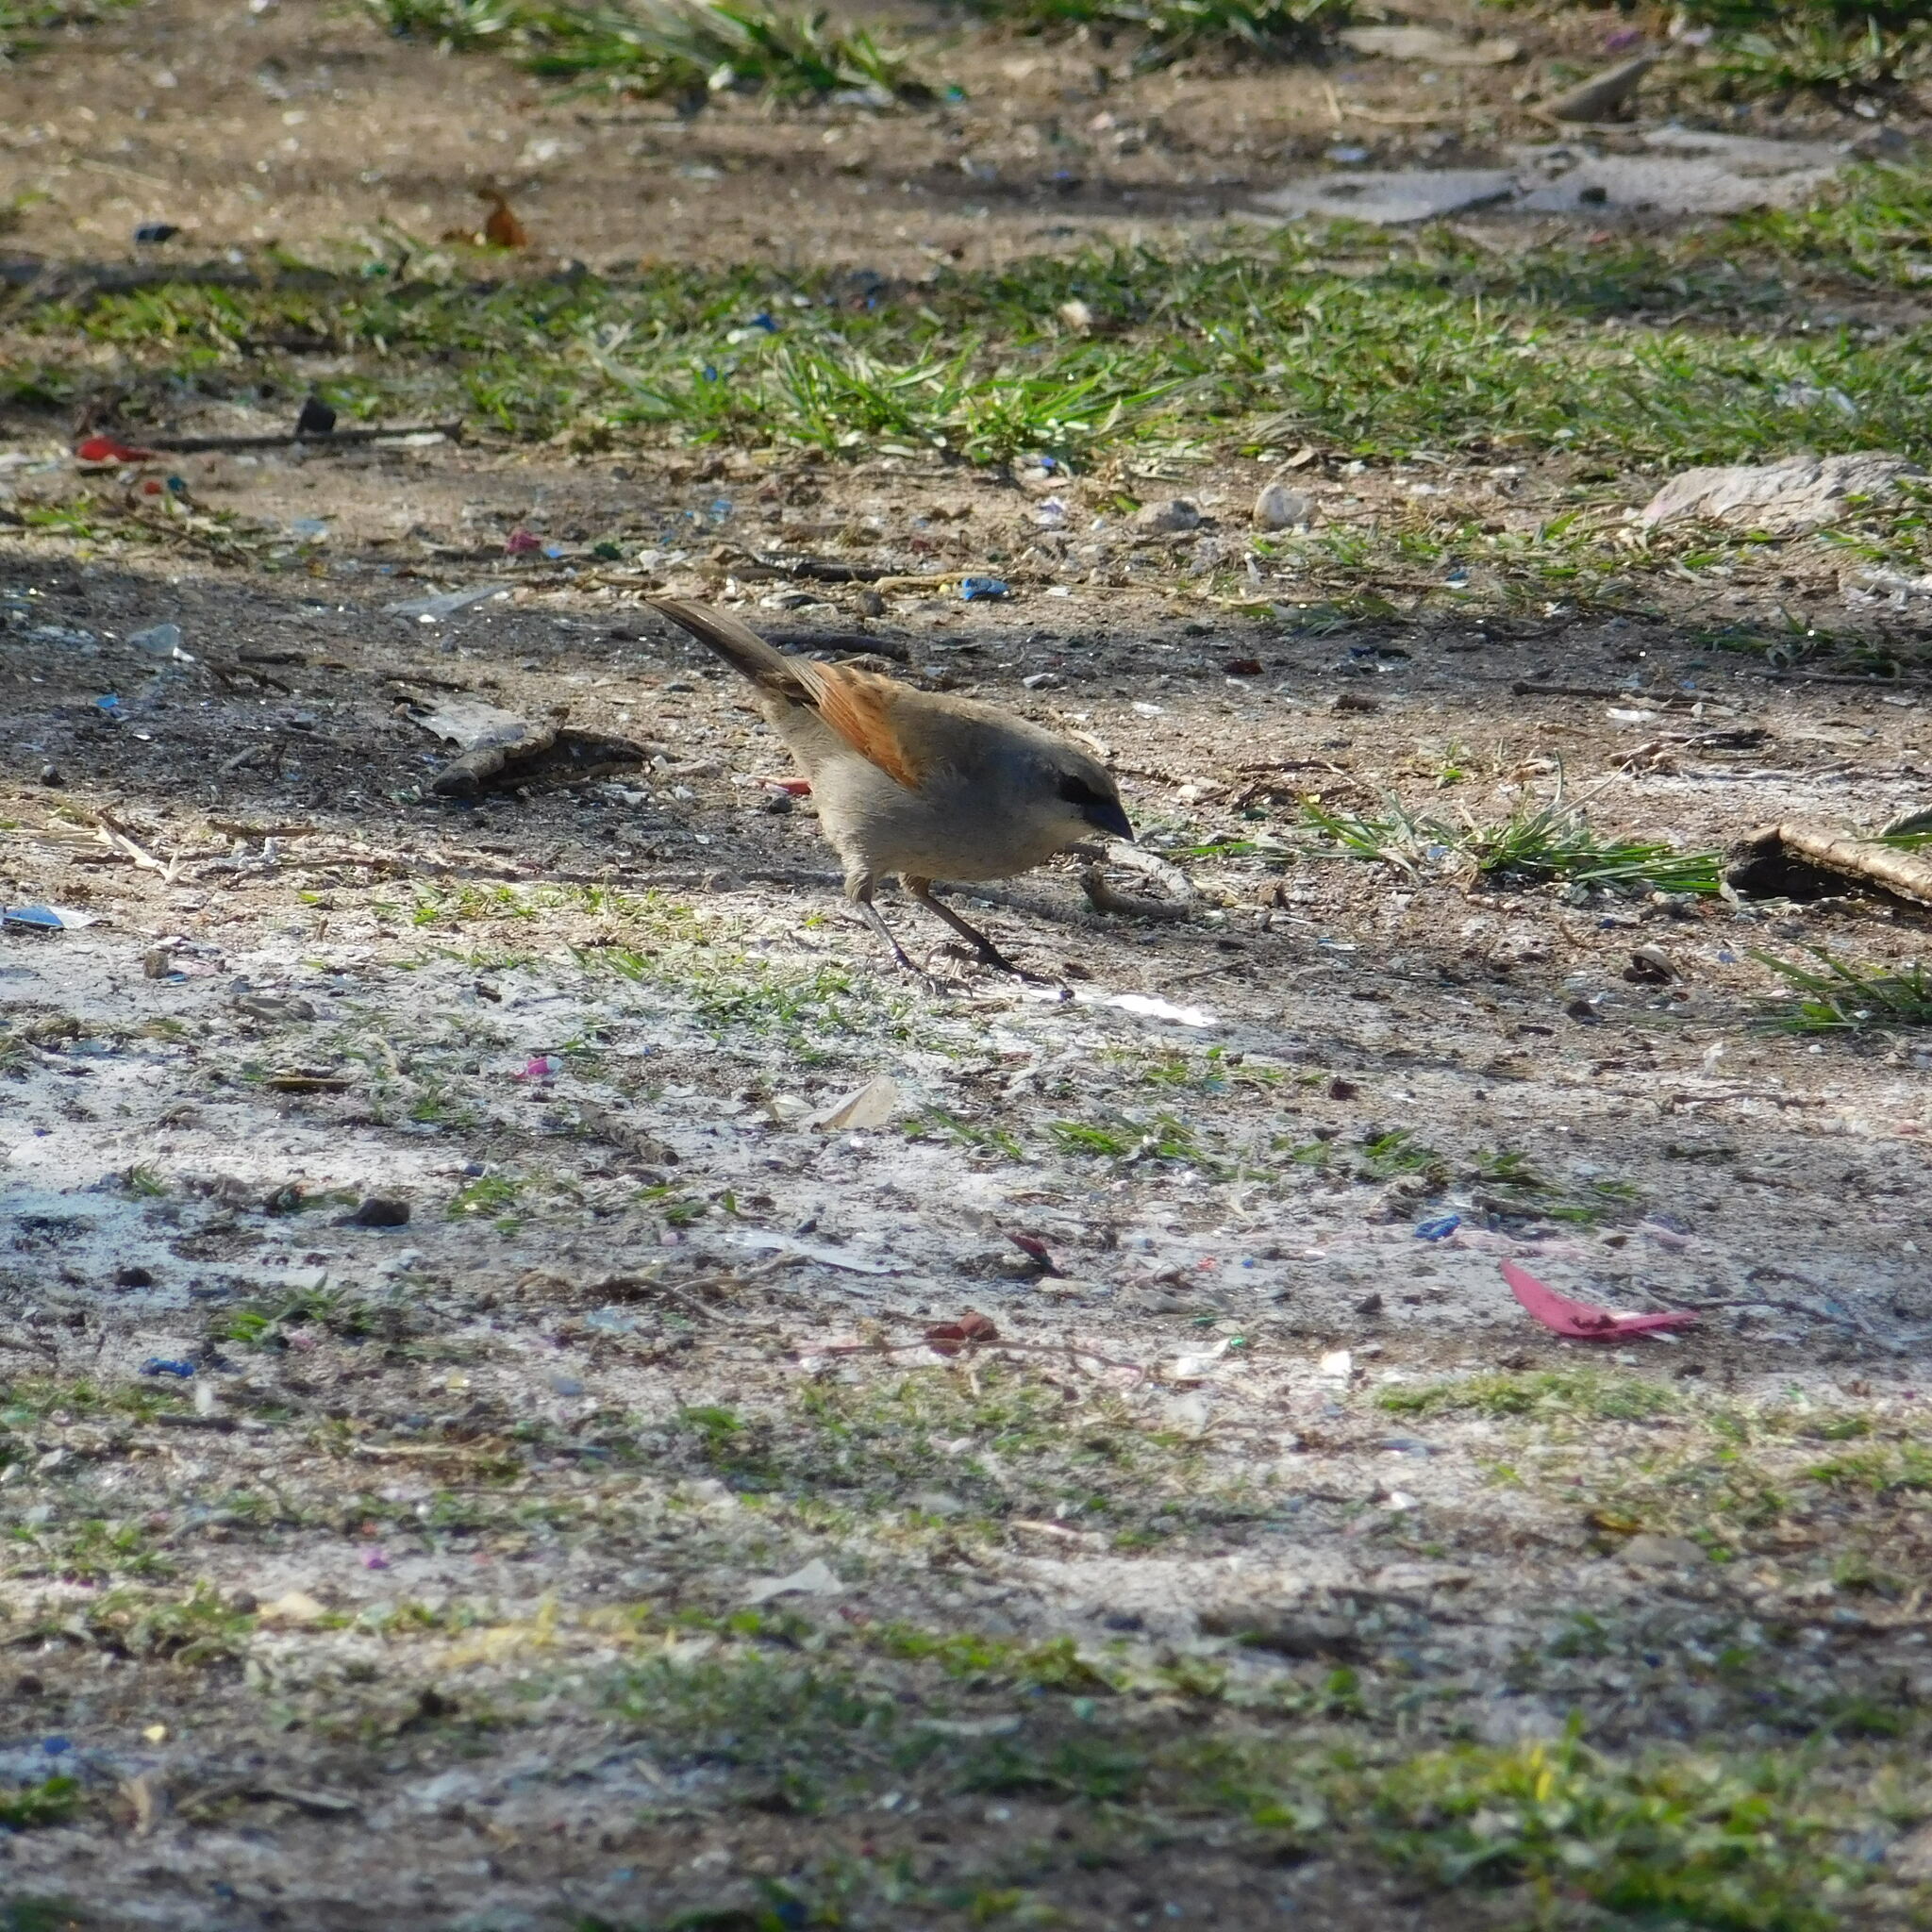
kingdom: Animalia
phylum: Chordata
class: Aves
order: Passeriformes
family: Icteridae
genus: Agelaioides
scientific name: Agelaioides badius
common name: Baywing
